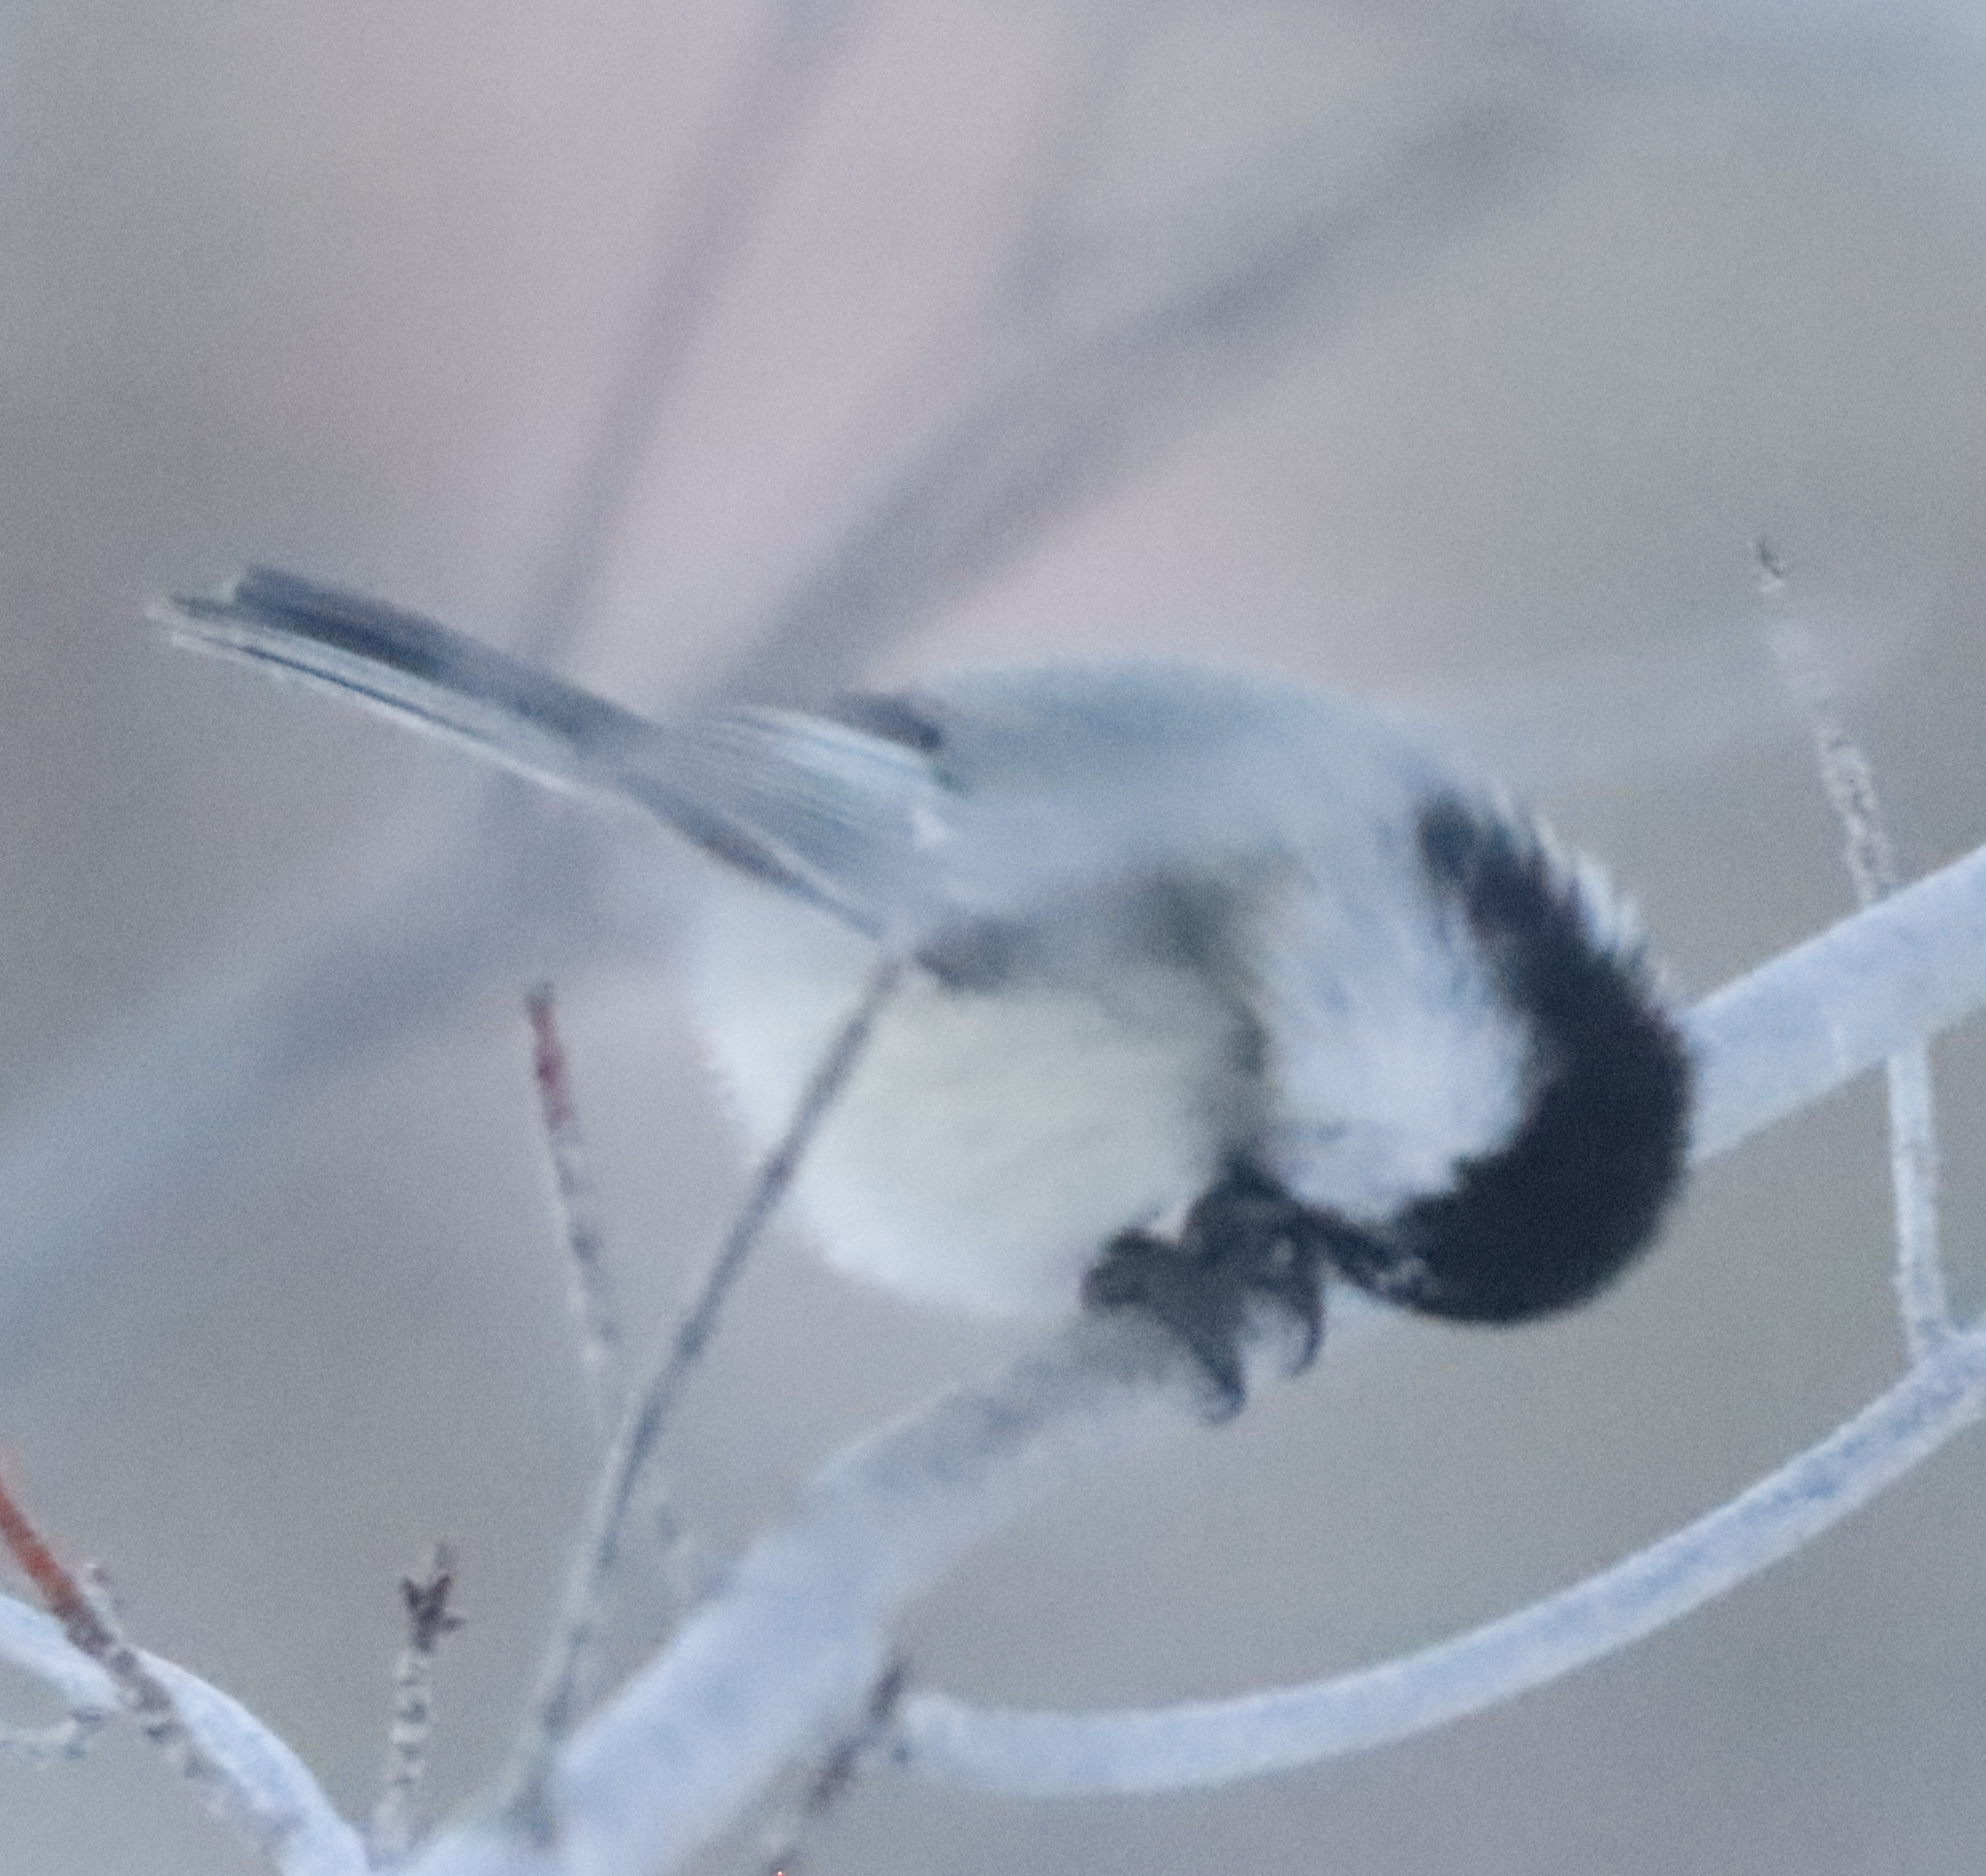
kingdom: Animalia
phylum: Chordata
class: Aves
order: Passeriformes
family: Paridae
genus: Poecile
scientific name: Poecile atricapillus
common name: Black-capped chickadee
